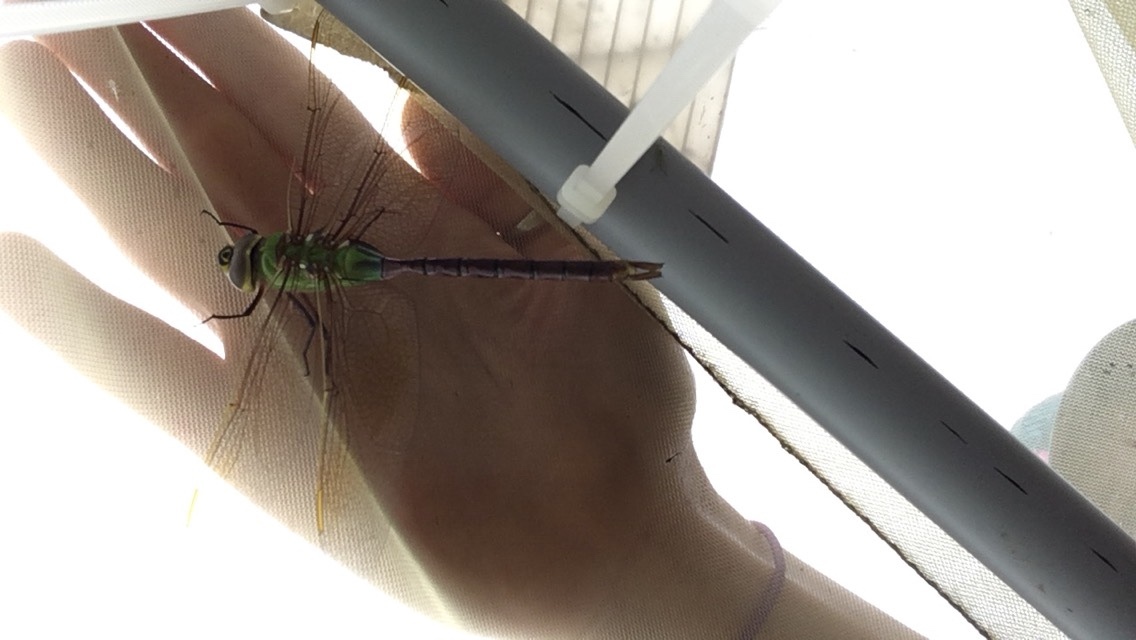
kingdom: Animalia
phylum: Arthropoda
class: Insecta
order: Odonata
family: Aeshnidae
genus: Anax
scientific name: Anax junius
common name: Common green darner
